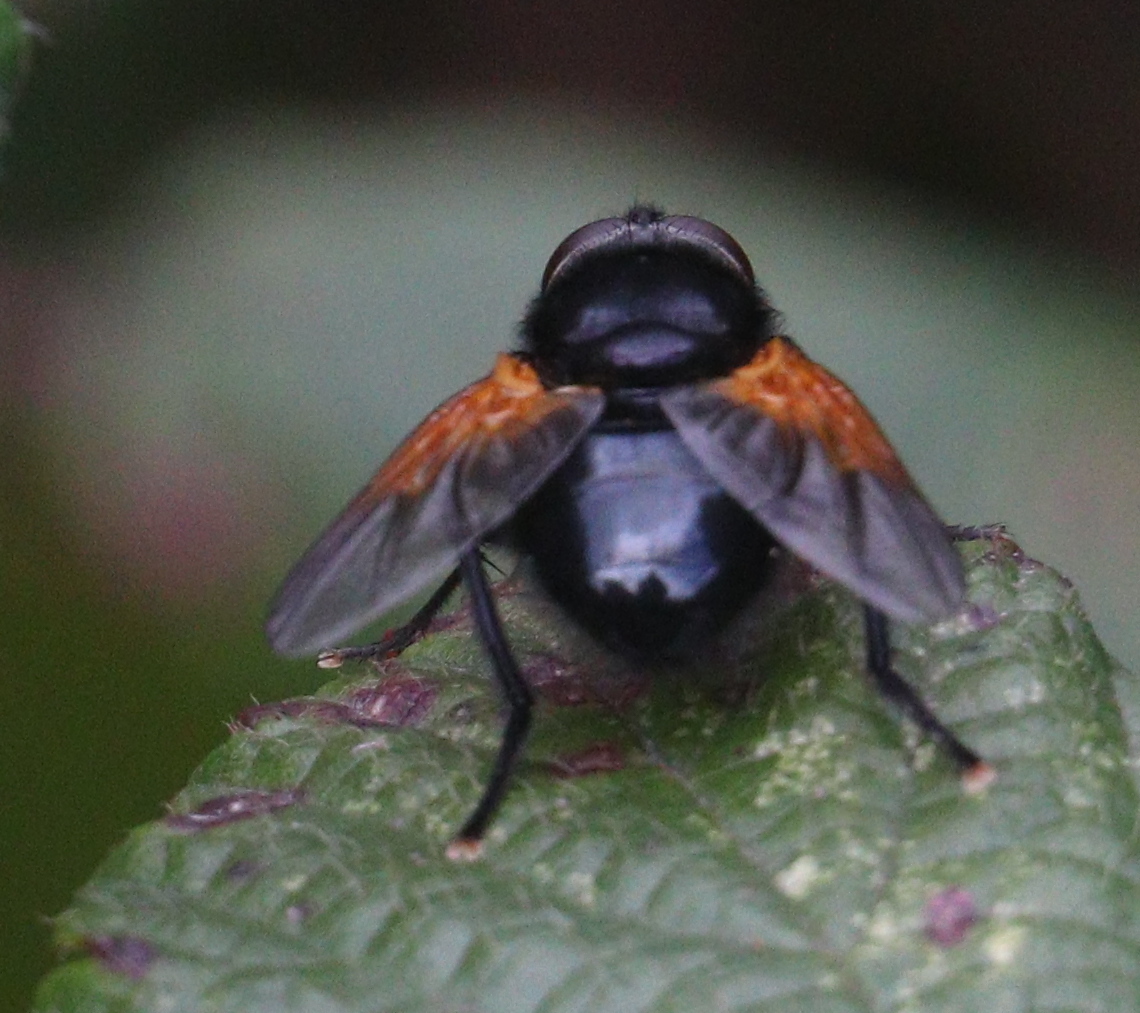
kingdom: Animalia
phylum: Arthropoda
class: Insecta
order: Diptera
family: Muscidae
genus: Mesembrina
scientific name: Mesembrina meridiana
